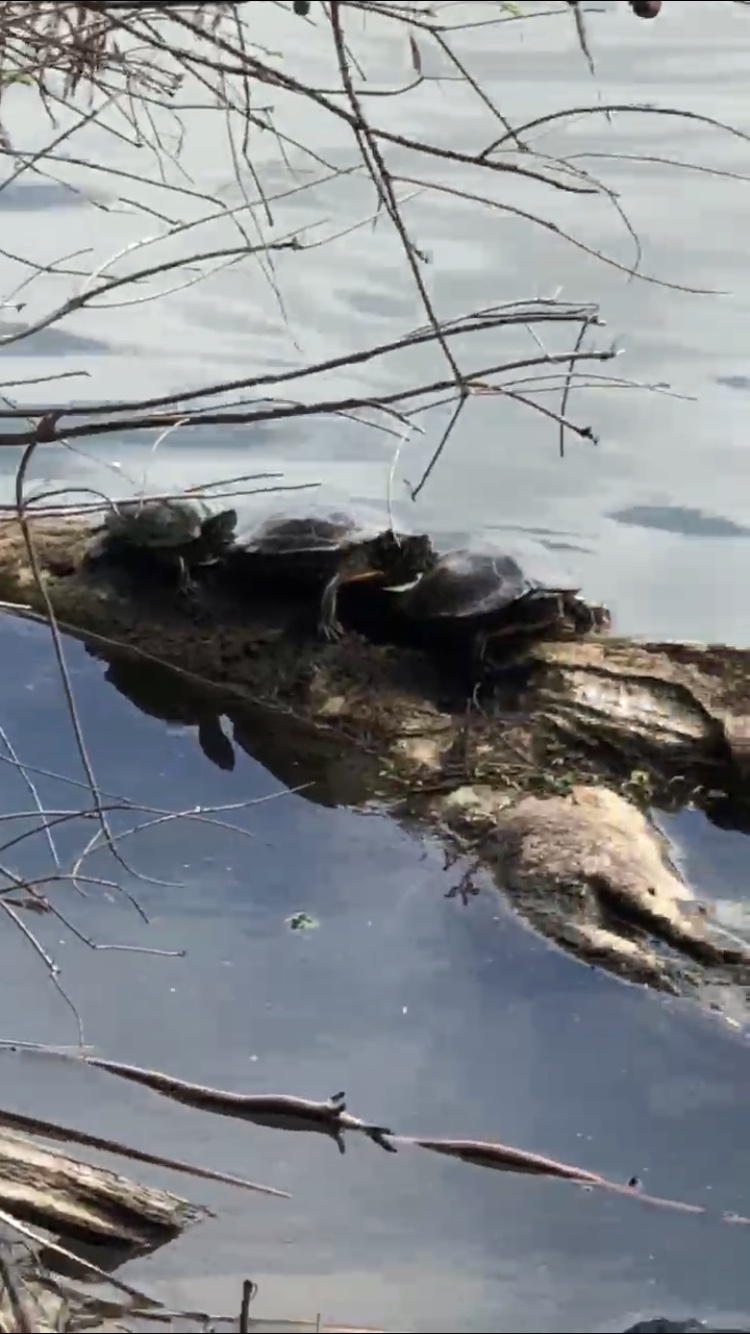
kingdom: Animalia
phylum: Chordata
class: Testudines
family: Emydidae
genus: Trachemys
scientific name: Trachemys scripta
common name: Slider
